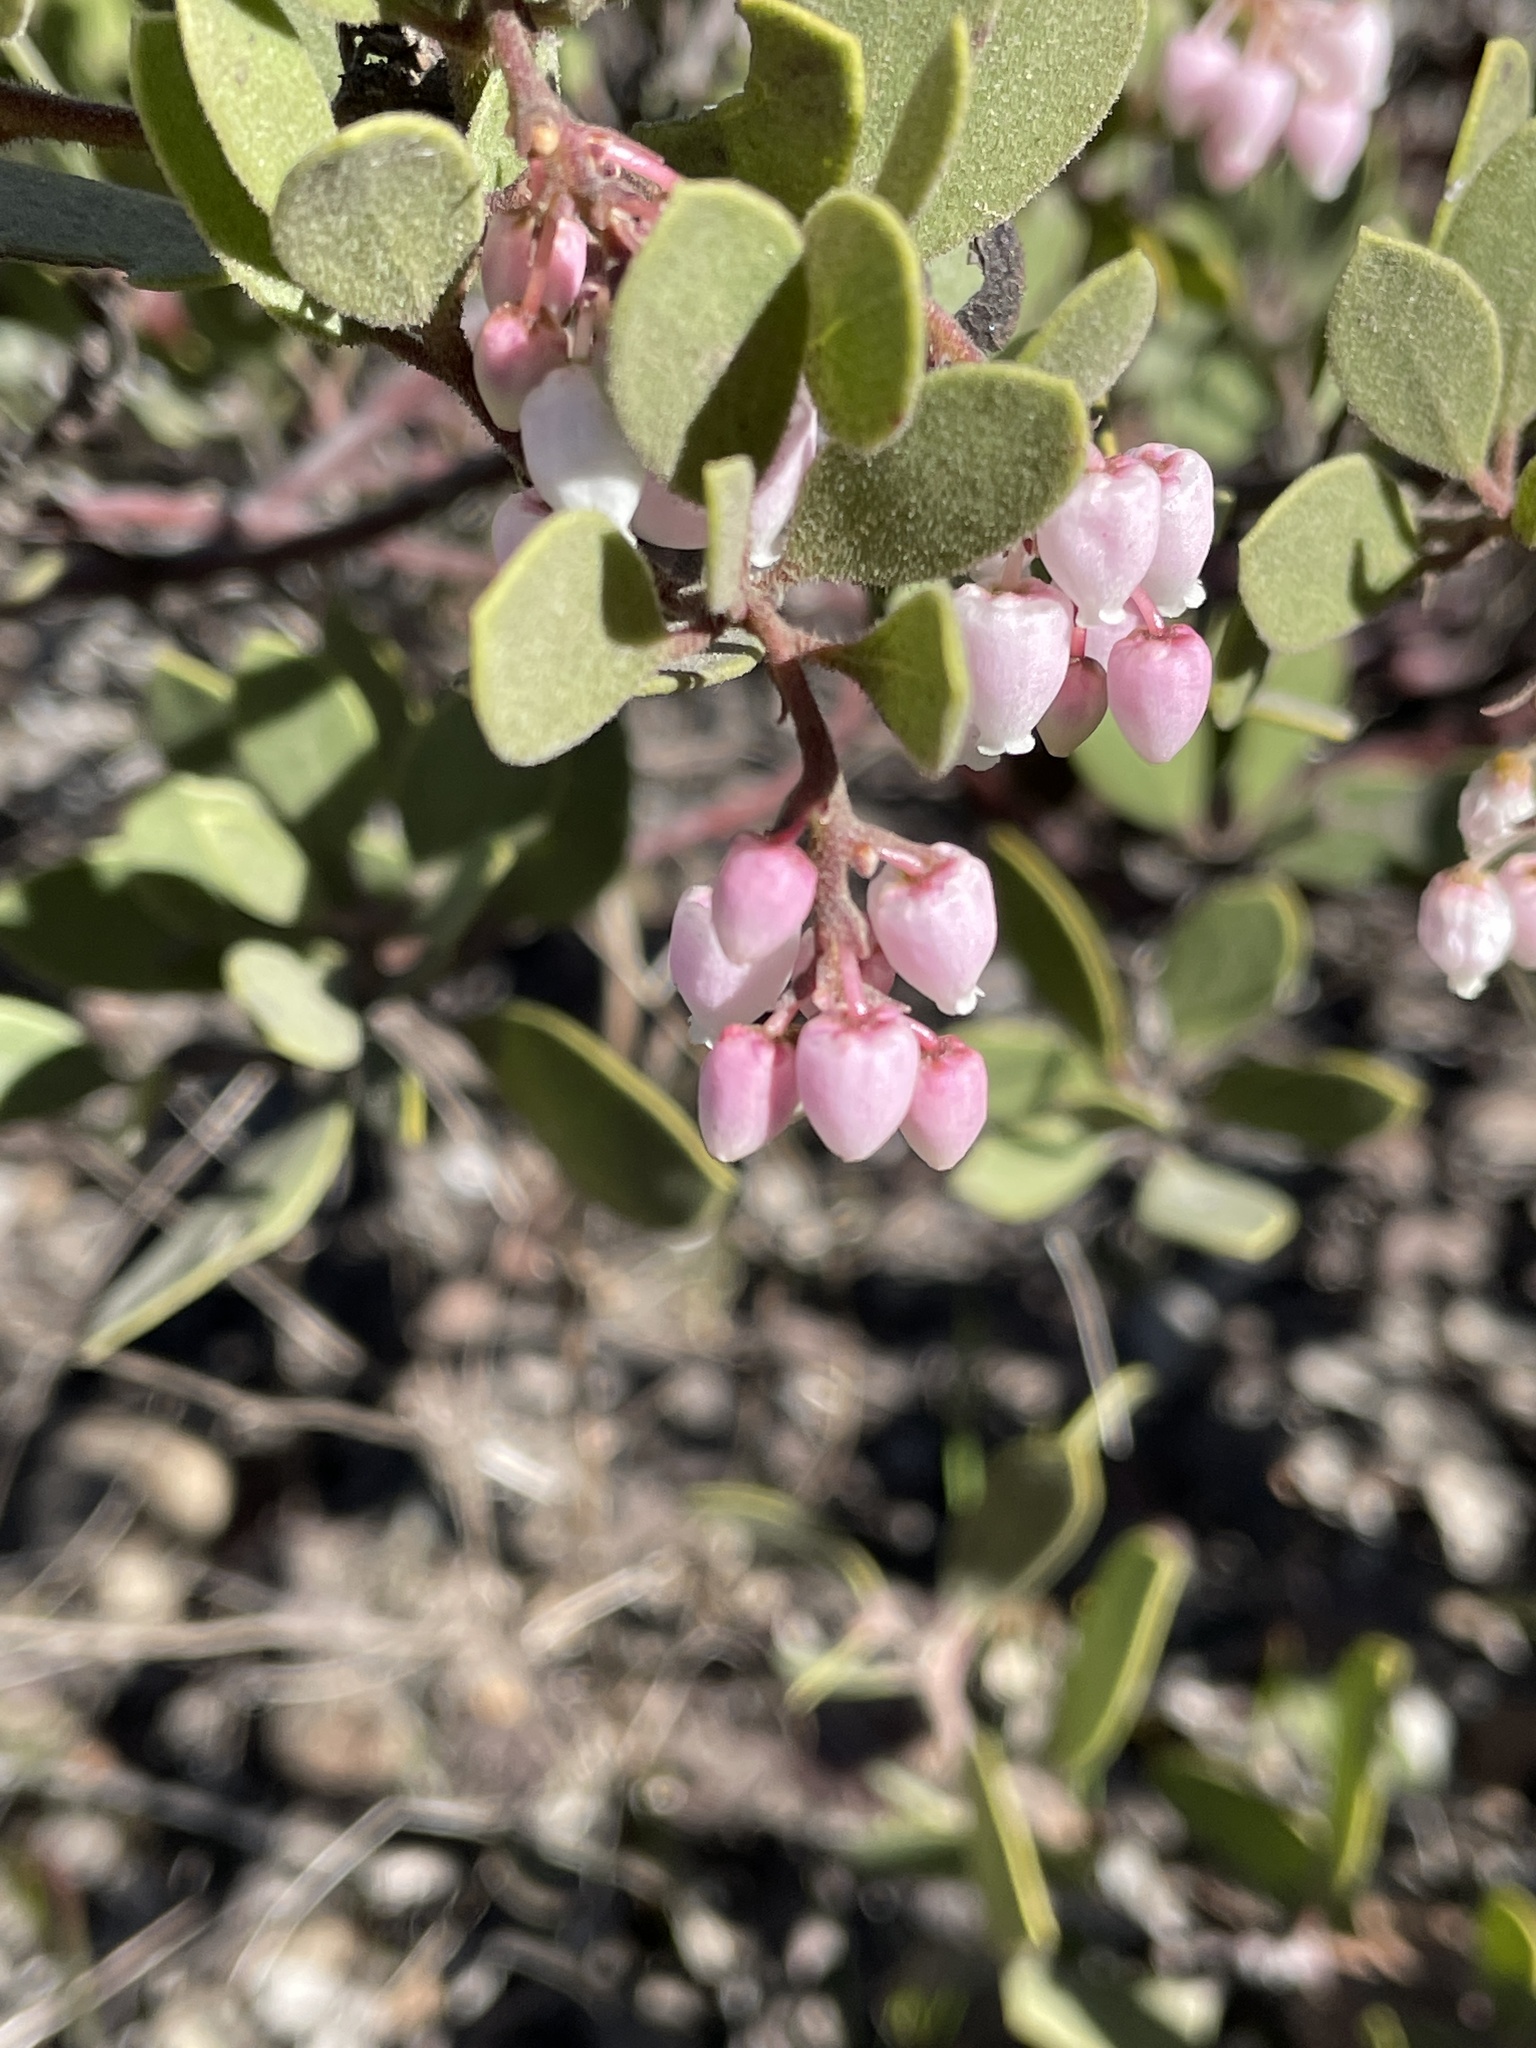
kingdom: Plantae
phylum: Tracheophyta
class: Magnoliopsida
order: Ericales
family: Ericaceae
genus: Arctostaphylos
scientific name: Arctostaphylos bakeri
